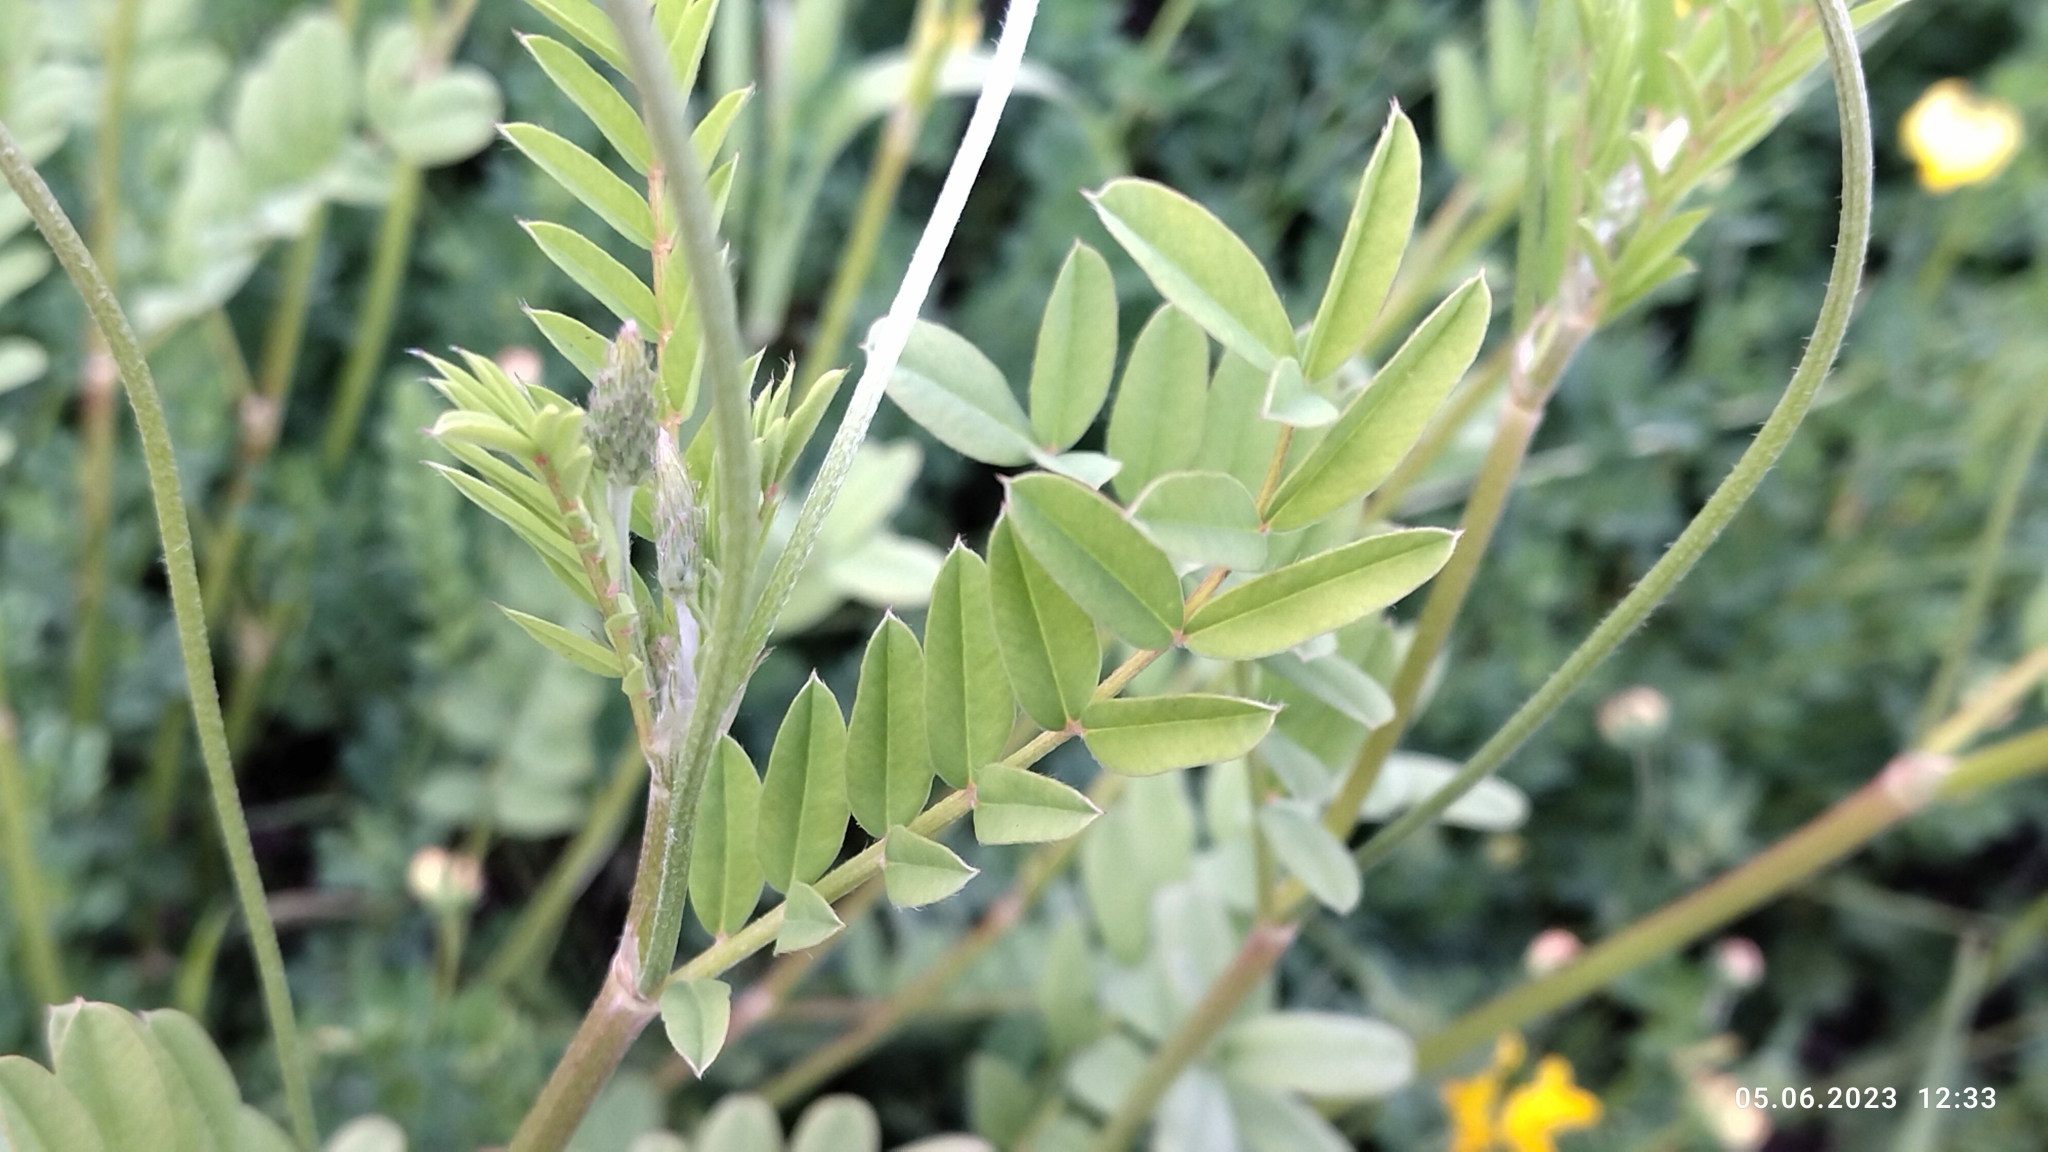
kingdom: Plantae
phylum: Tracheophyta
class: Magnoliopsida
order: Fabales
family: Fabaceae
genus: Onobrychis
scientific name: Onobrychis viciifolia
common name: Sainfoin
